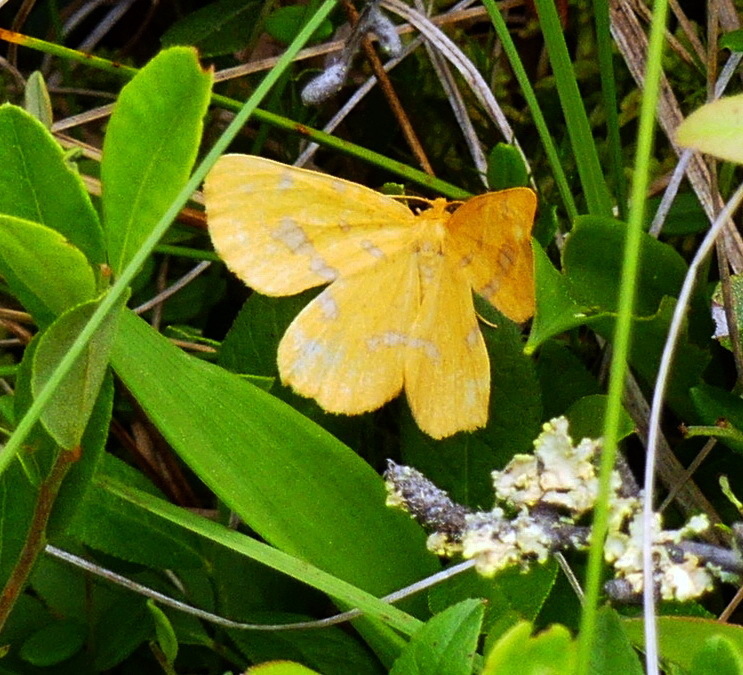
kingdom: Animalia
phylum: Arthropoda
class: Insecta
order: Lepidoptera
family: Geometridae
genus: Xanthotype
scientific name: Xanthotype
